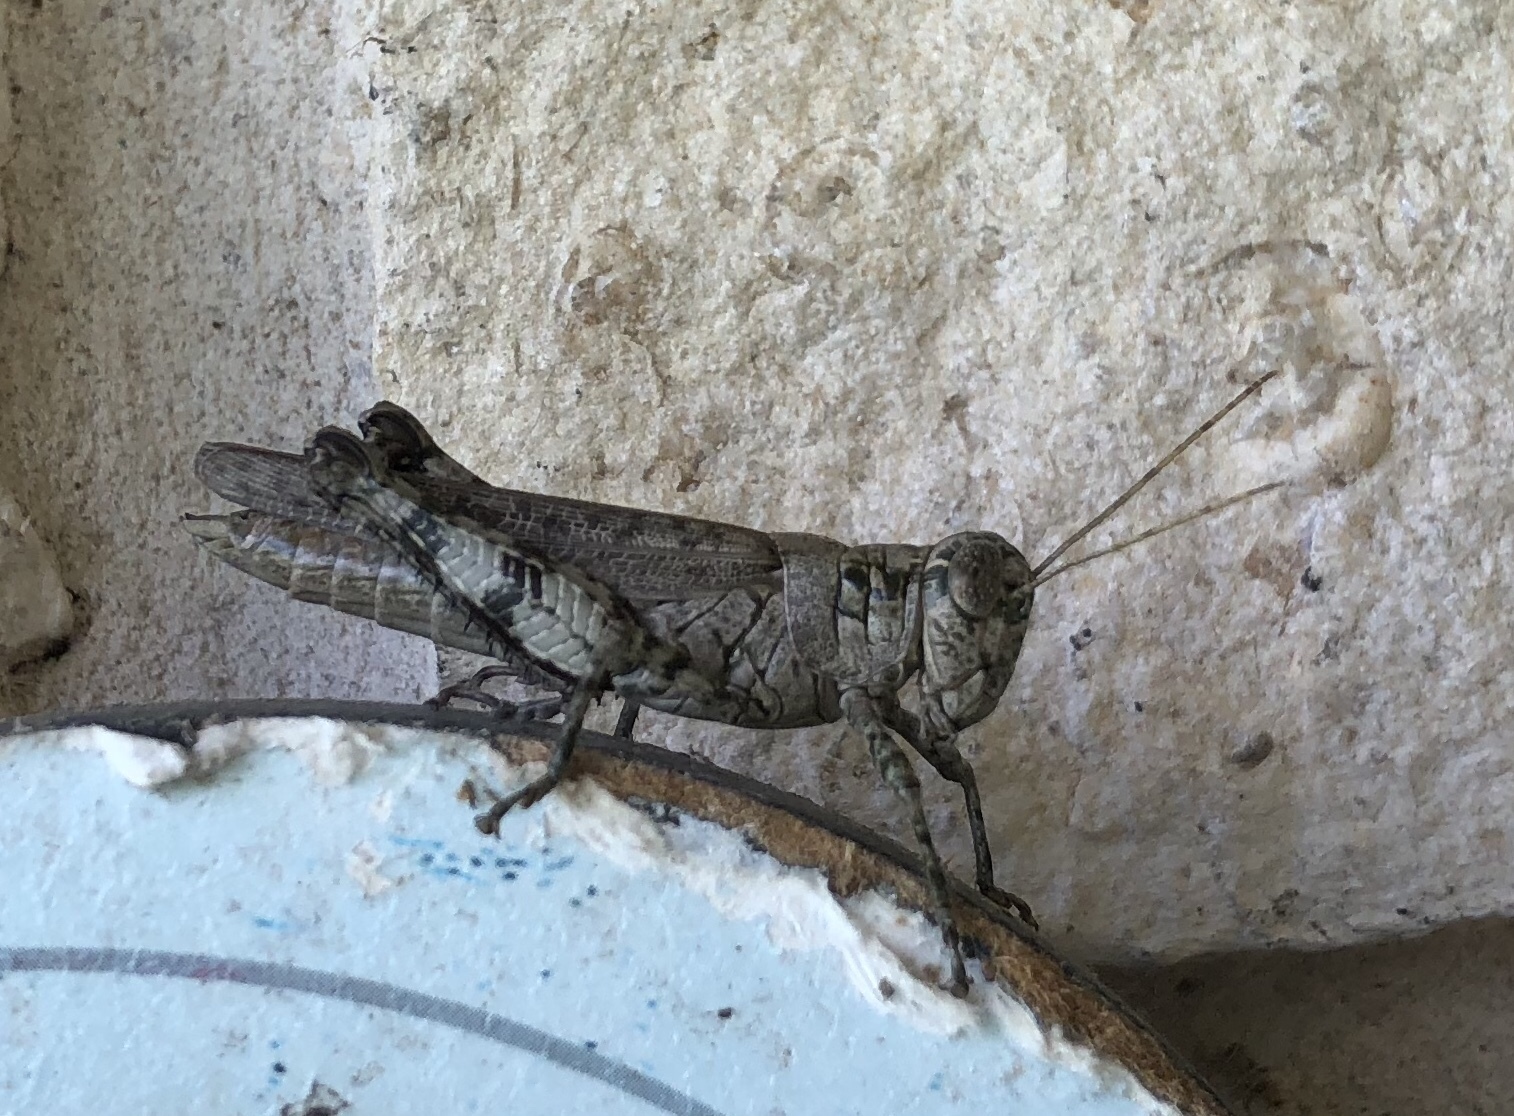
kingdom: Animalia
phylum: Arthropoda
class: Insecta
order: Orthoptera
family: Acrididae
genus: Melanoplus
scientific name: Melanoplus punctulatus
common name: Pine-tree spur-throat grasshopper
